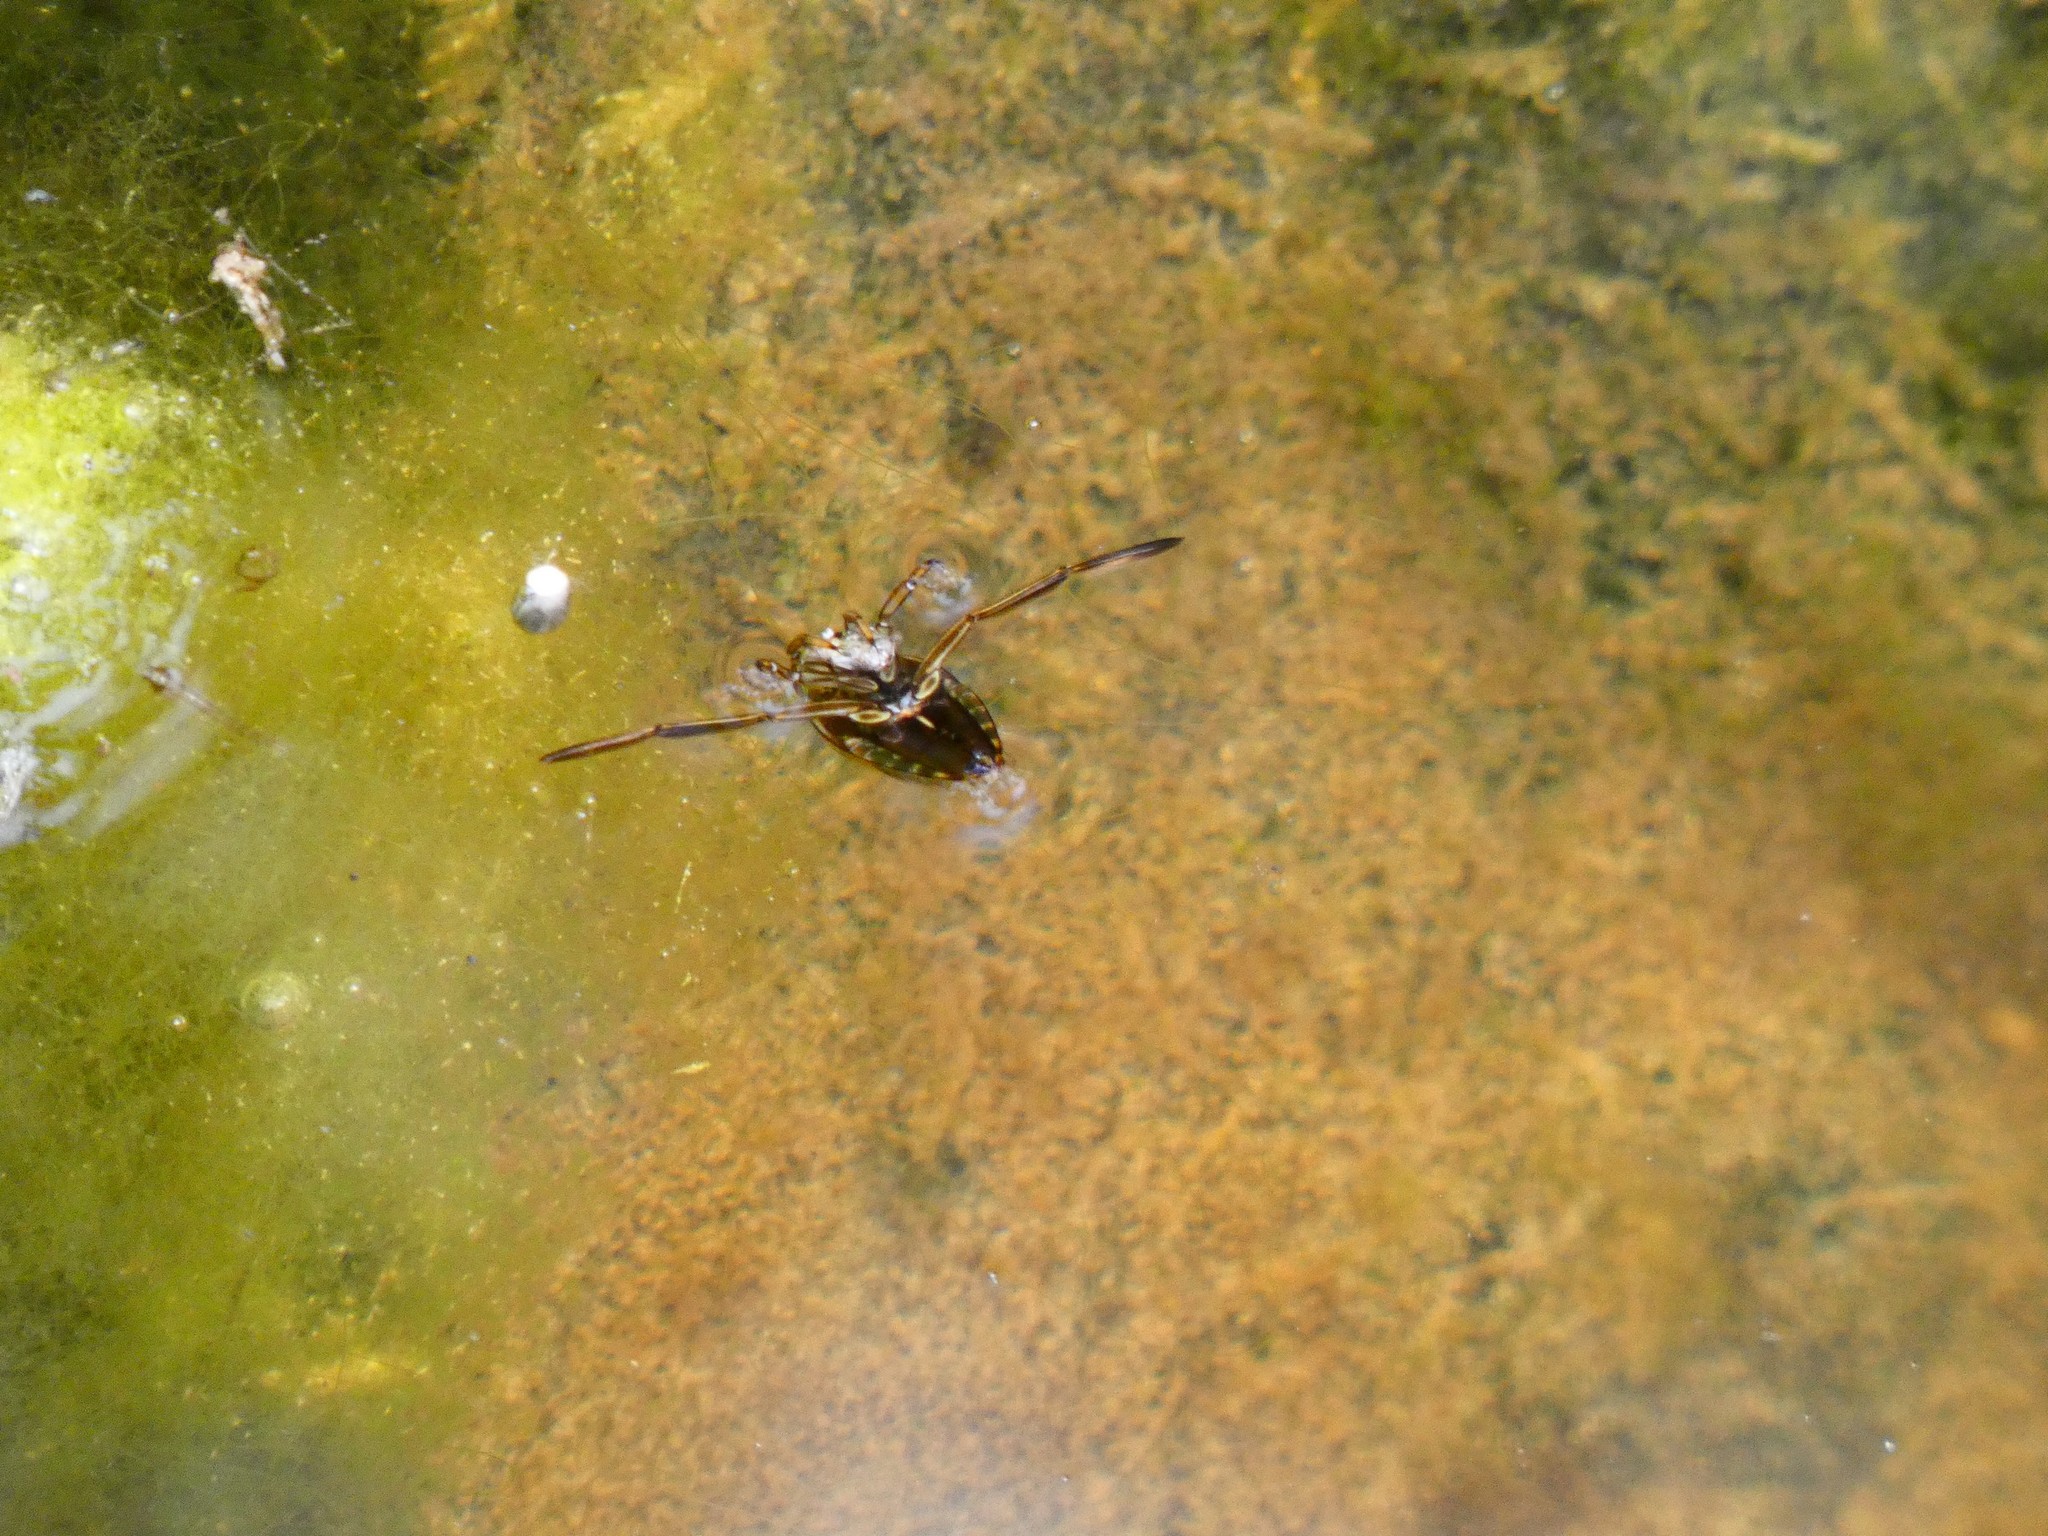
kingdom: Animalia
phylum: Arthropoda
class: Insecta
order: Hemiptera
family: Notonectidae
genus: Notonecta
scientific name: Notonecta
